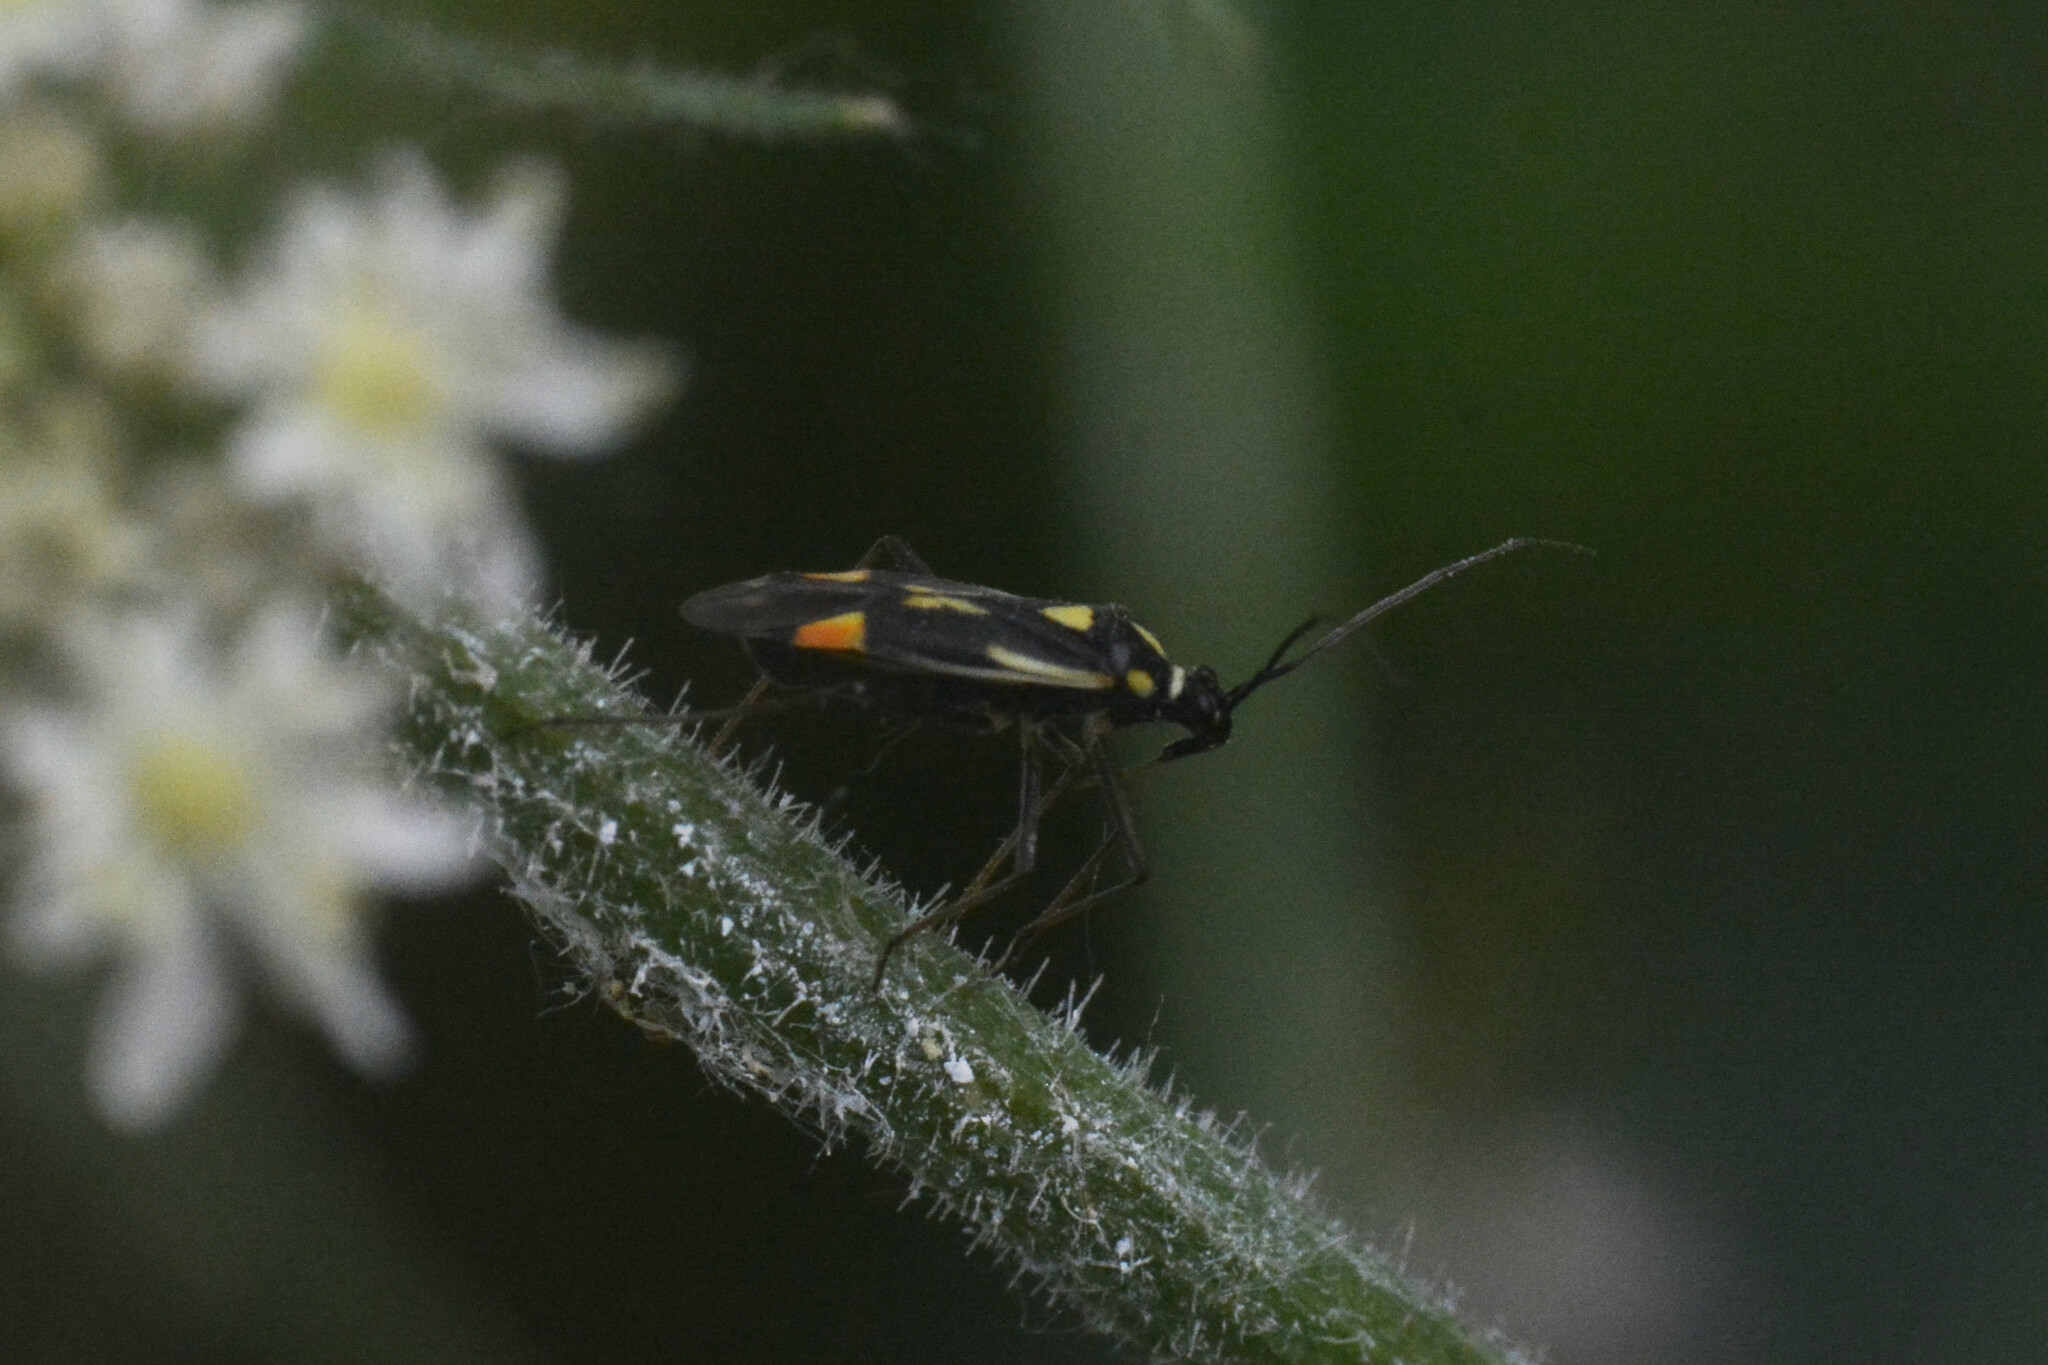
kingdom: Animalia
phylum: Arthropoda
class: Insecta
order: Hemiptera
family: Miridae
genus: Grypocoris
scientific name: Grypocoris stysi
